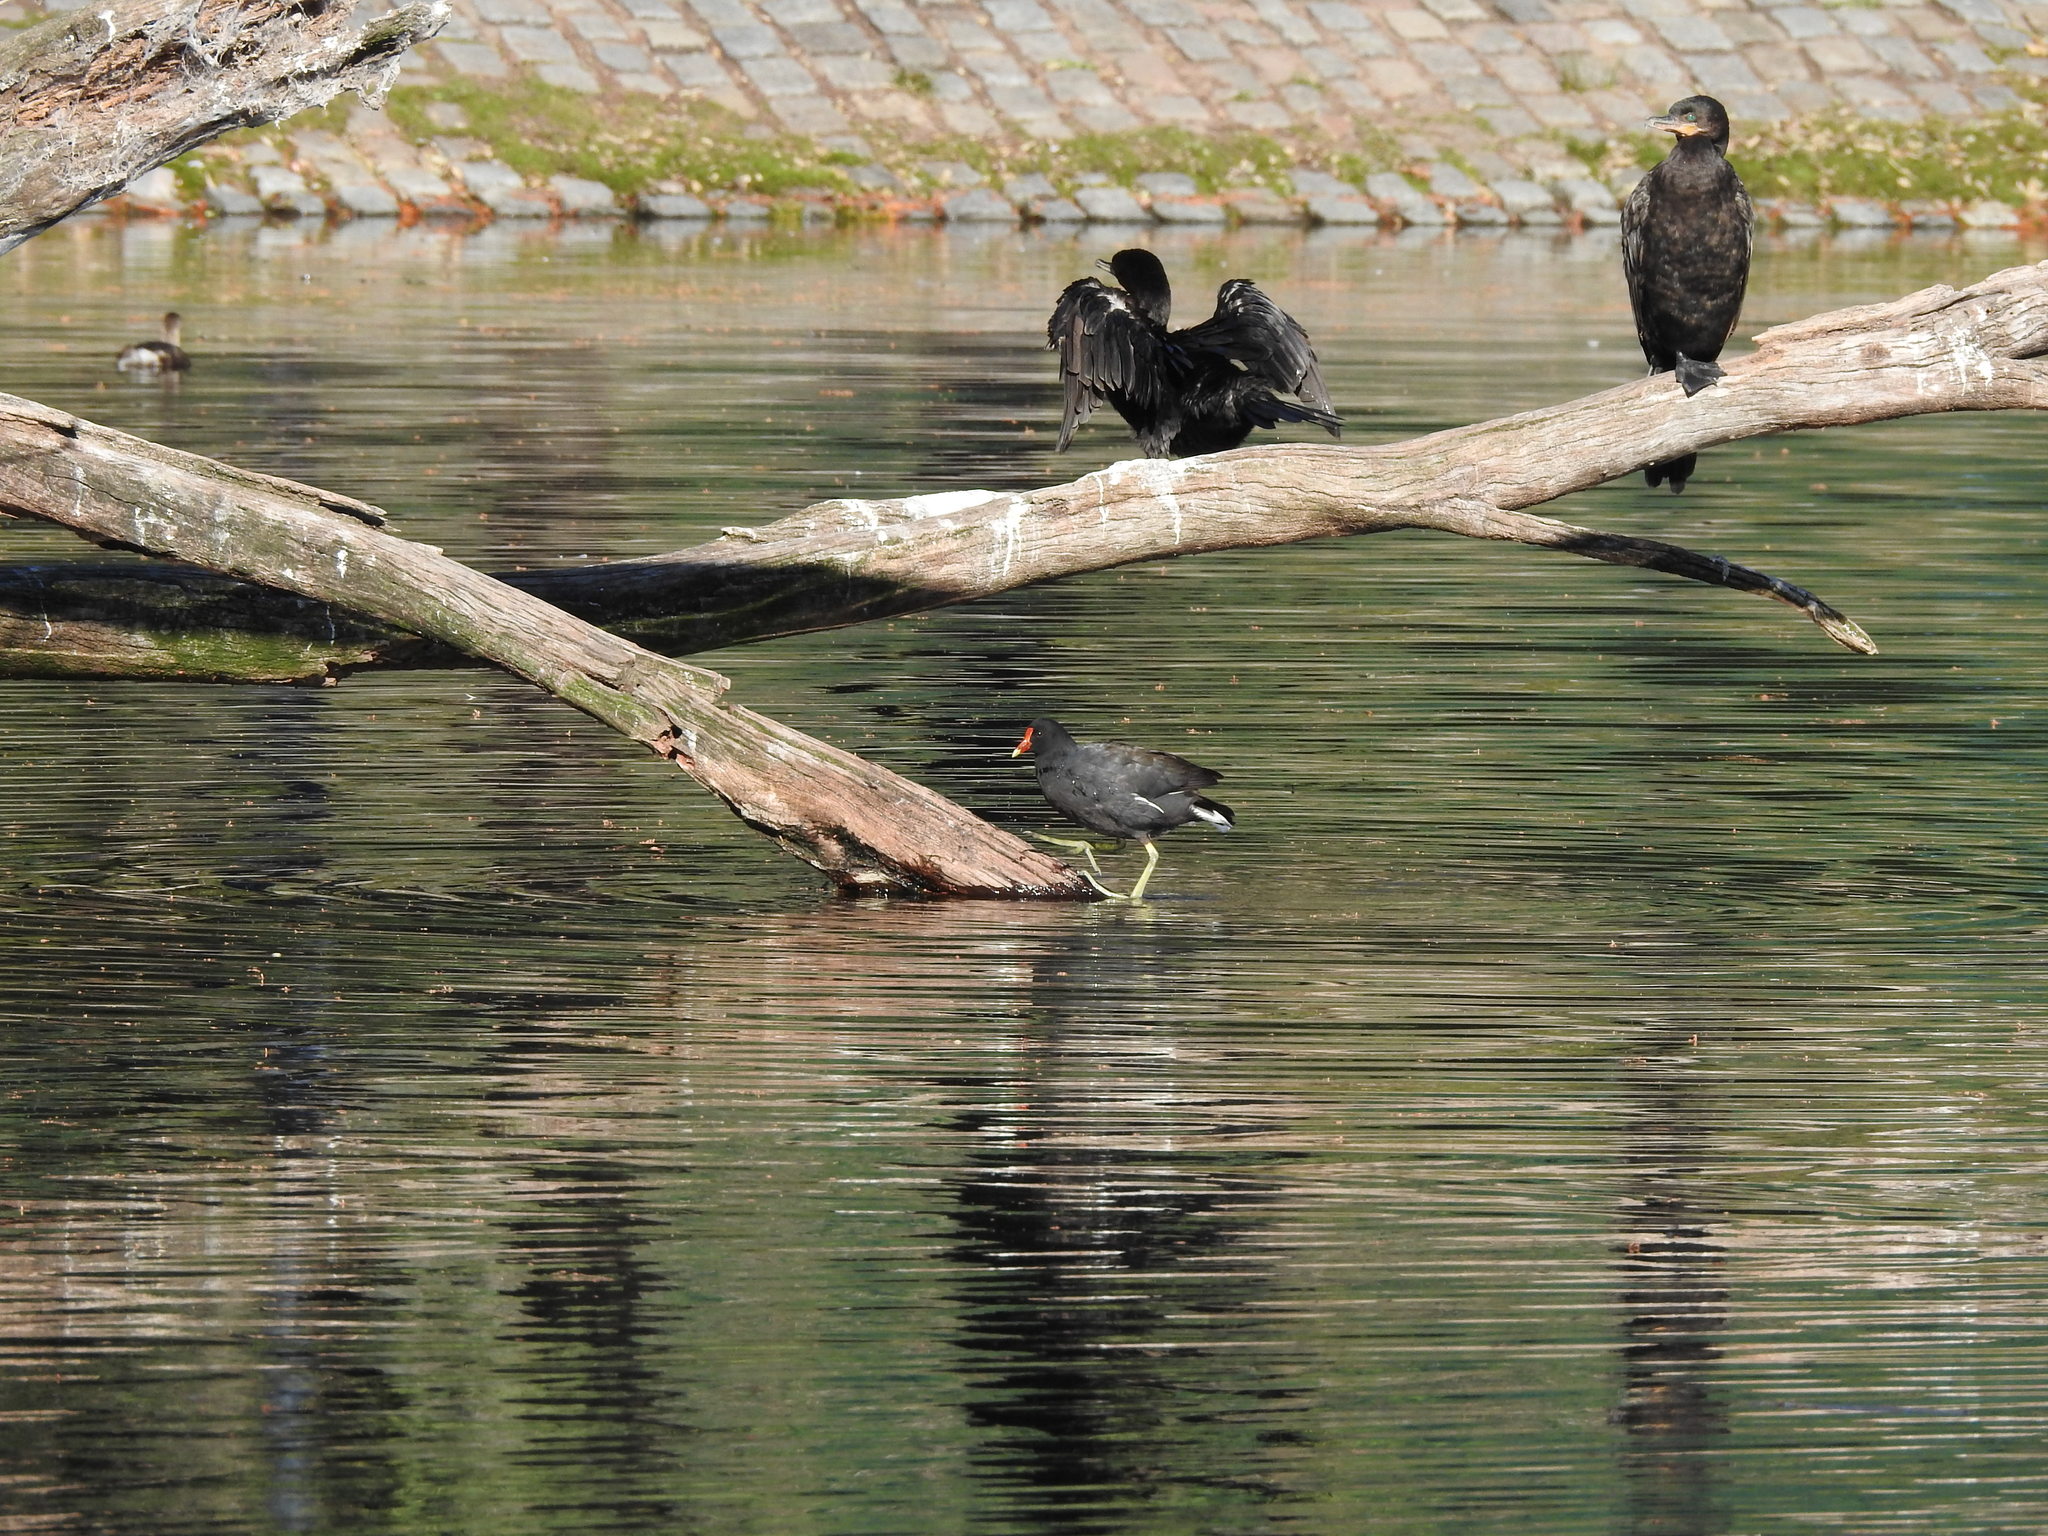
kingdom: Animalia
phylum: Chordata
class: Aves
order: Suliformes
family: Phalacrocoracidae
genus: Phalacrocorax
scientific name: Phalacrocorax brasilianus
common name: Neotropic cormorant
